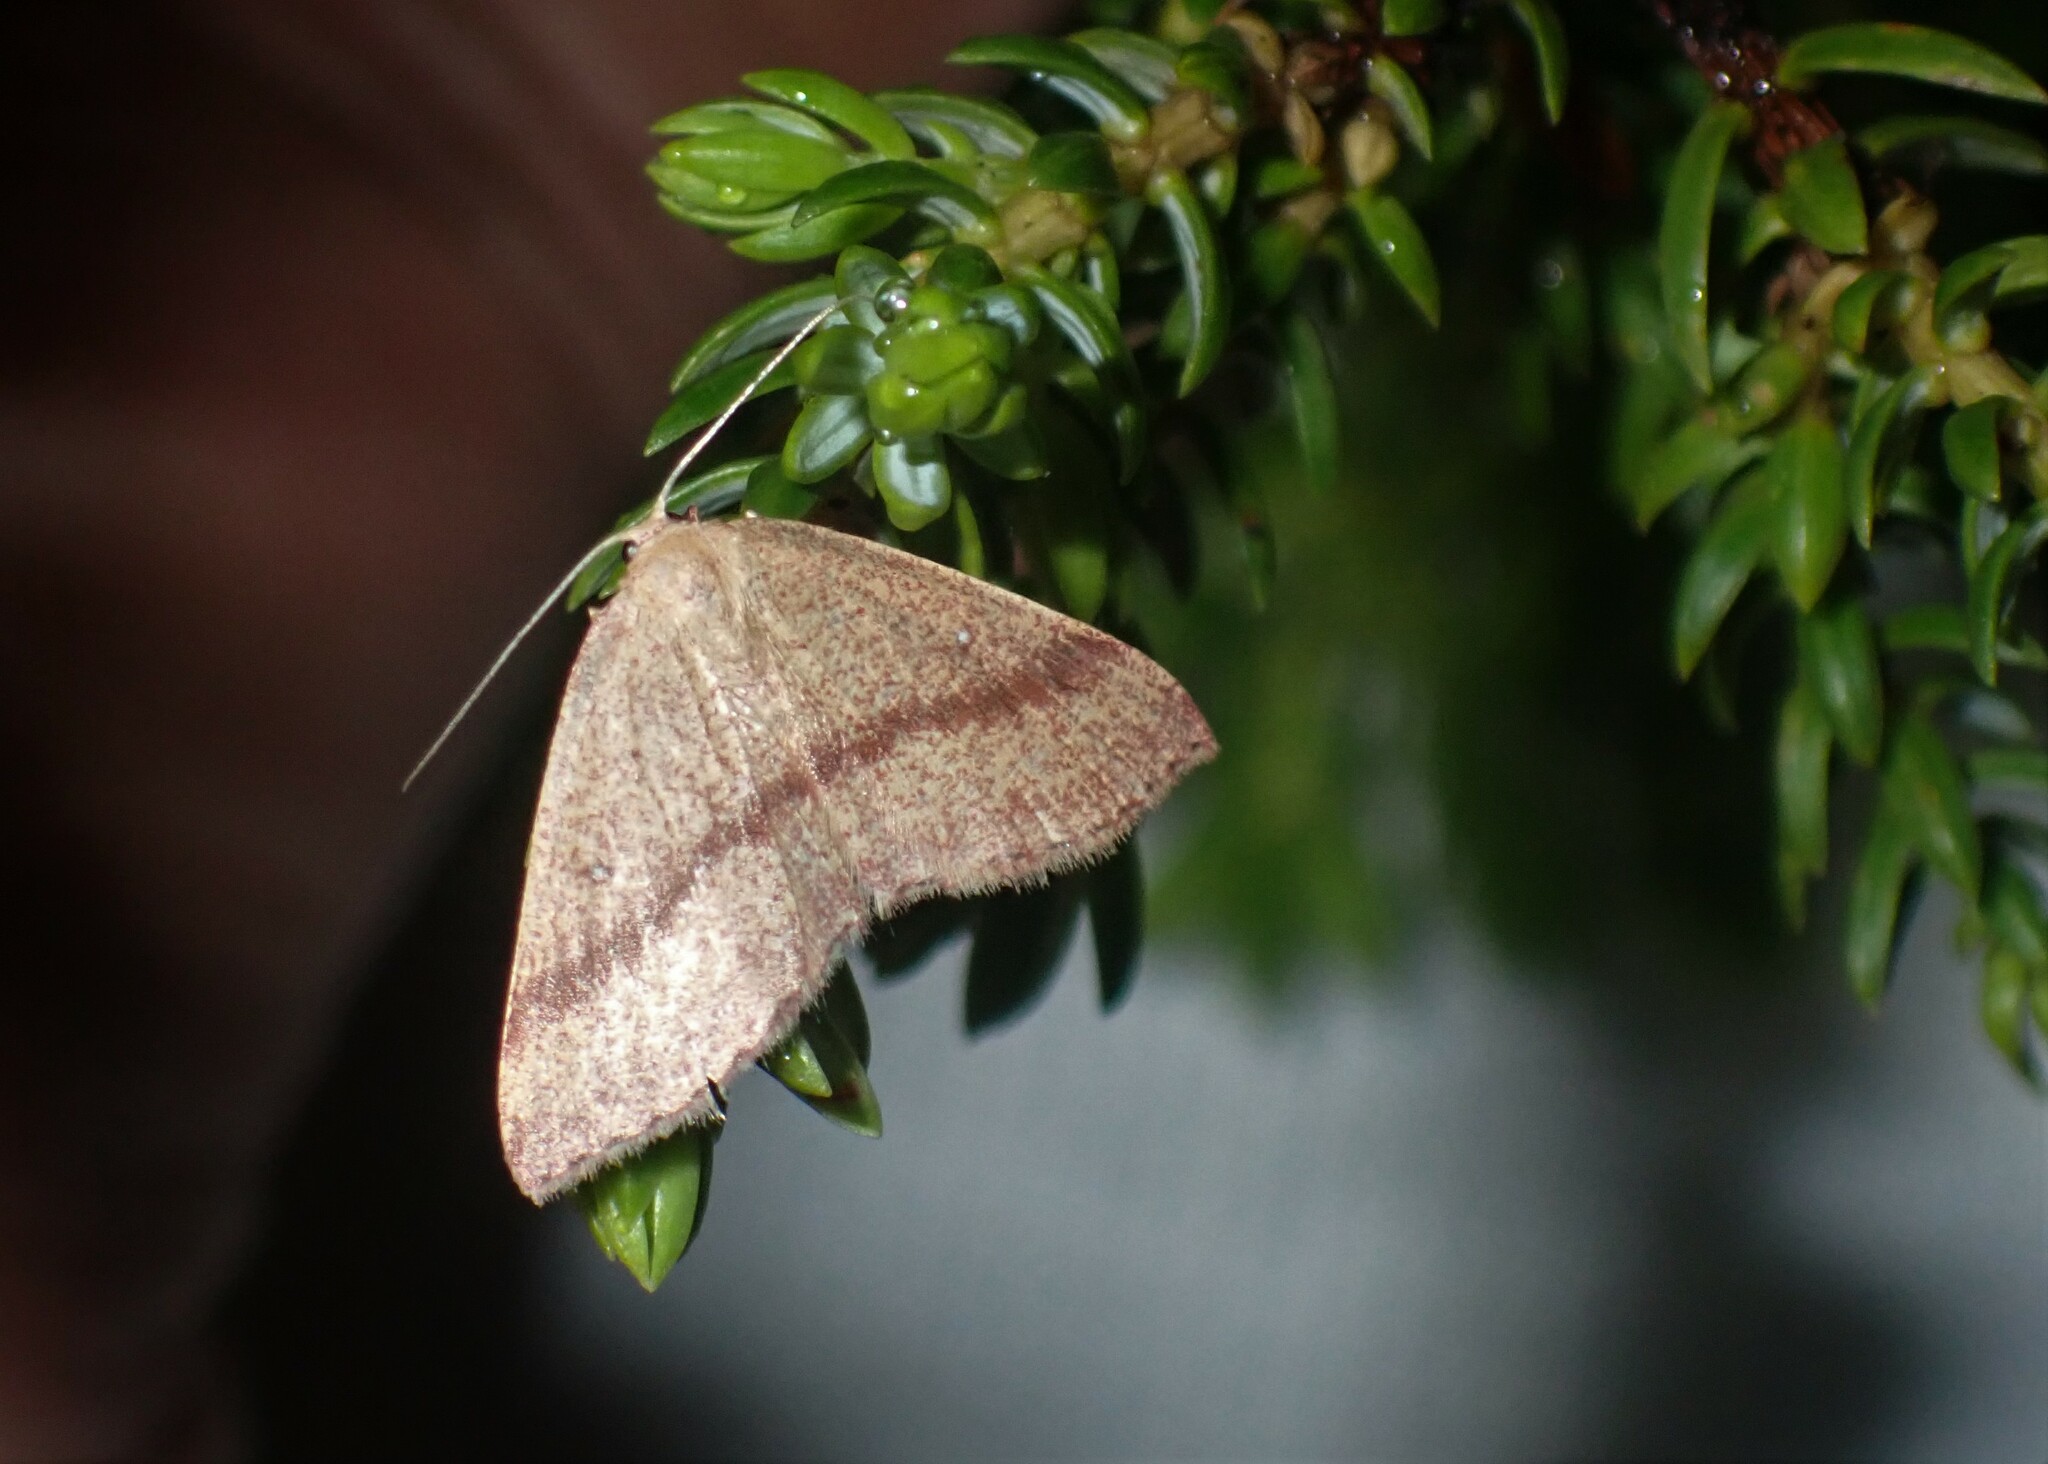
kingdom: Animalia
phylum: Arthropoda
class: Insecta
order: Lepidoptera
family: Geometridae
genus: Cyclophora
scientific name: Cyclophora azorensis
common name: Geometer moth
